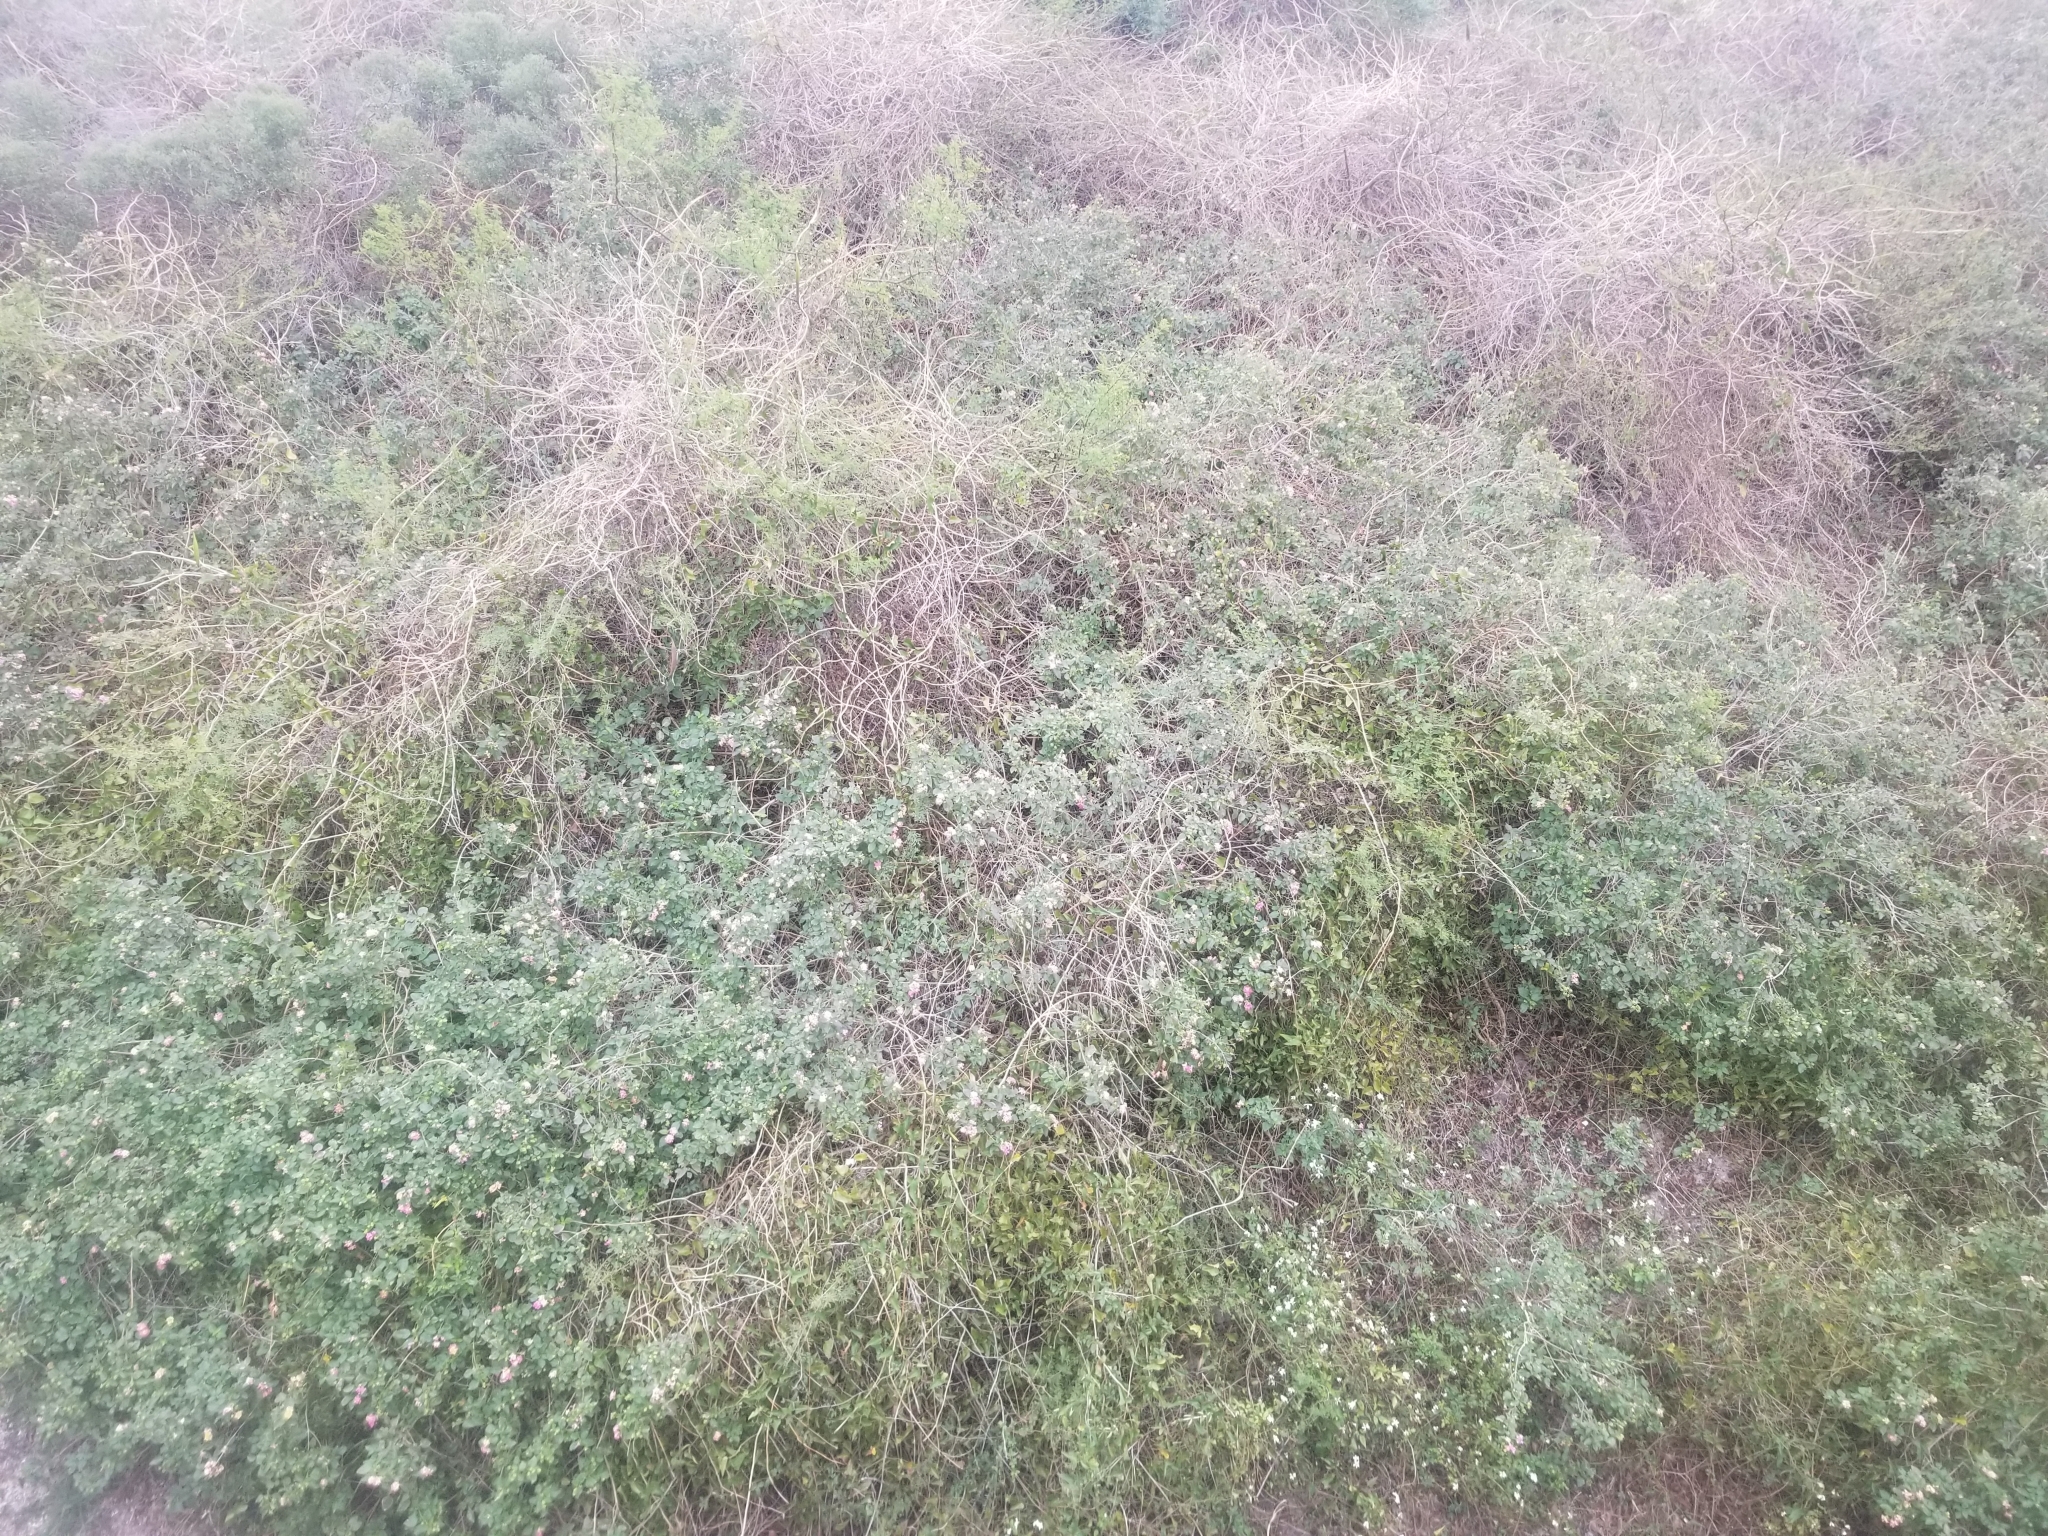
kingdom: Plantae
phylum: Tracheophyta
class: Magnoliopsida
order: Lamiales
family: Verbenaceae
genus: Lantana
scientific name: Lantana camara
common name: Lantana
